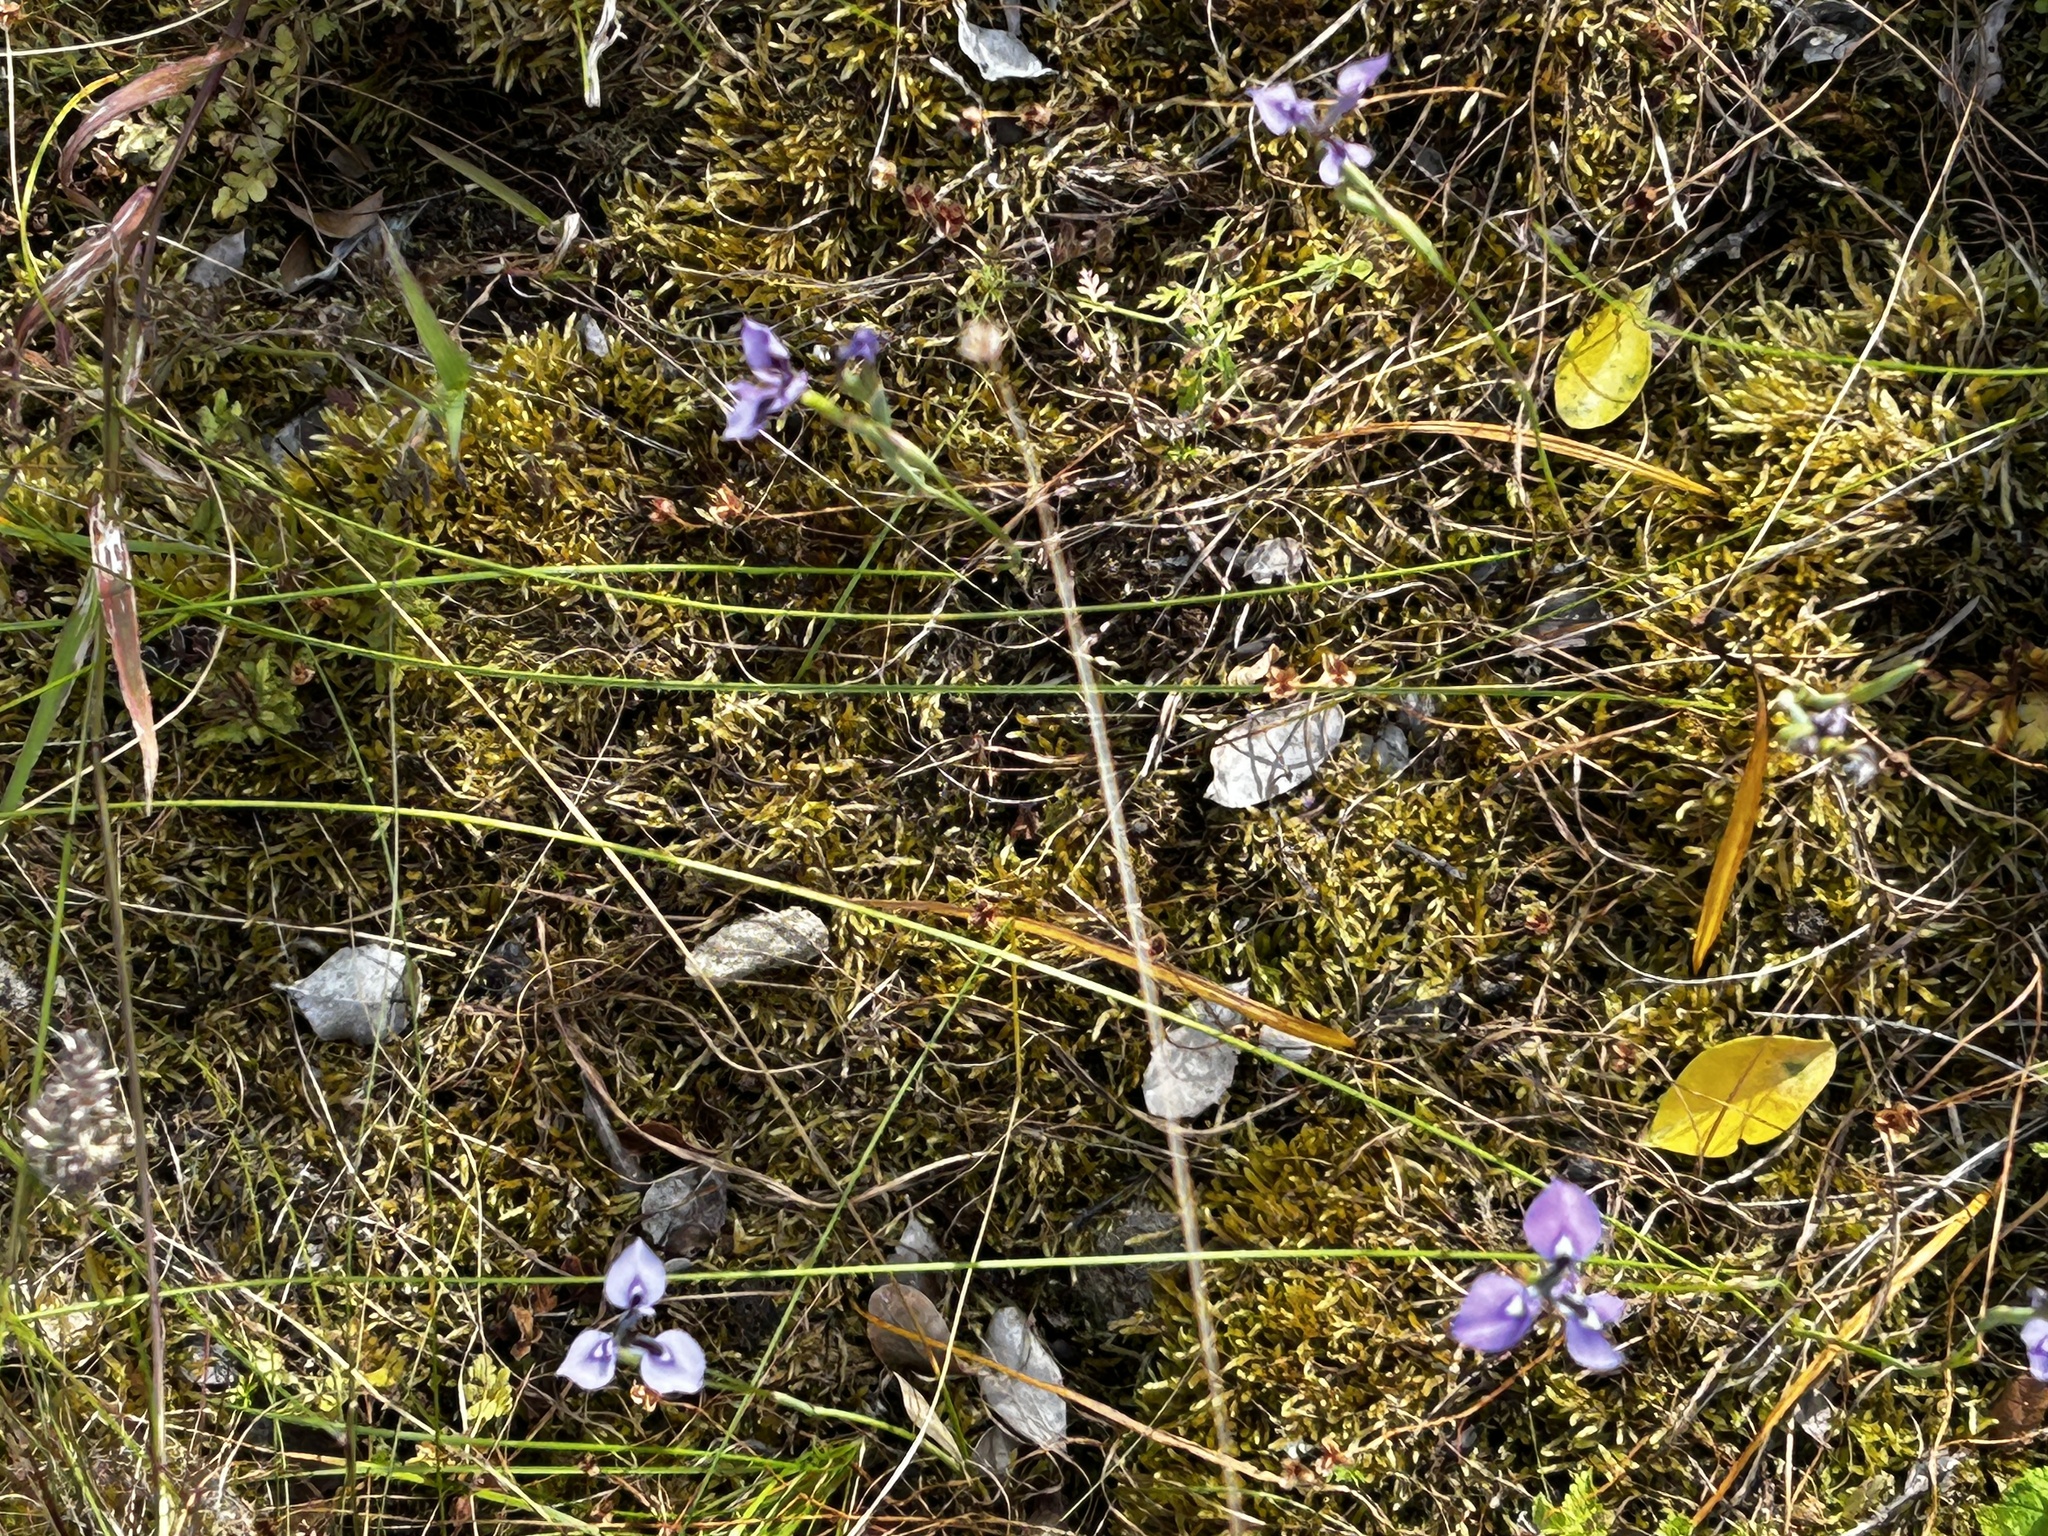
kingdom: Plantae
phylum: Tracheophyta
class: Liliopsida
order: Asparagales
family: Iridaceae
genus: Moraea
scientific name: Moraea tripetala
